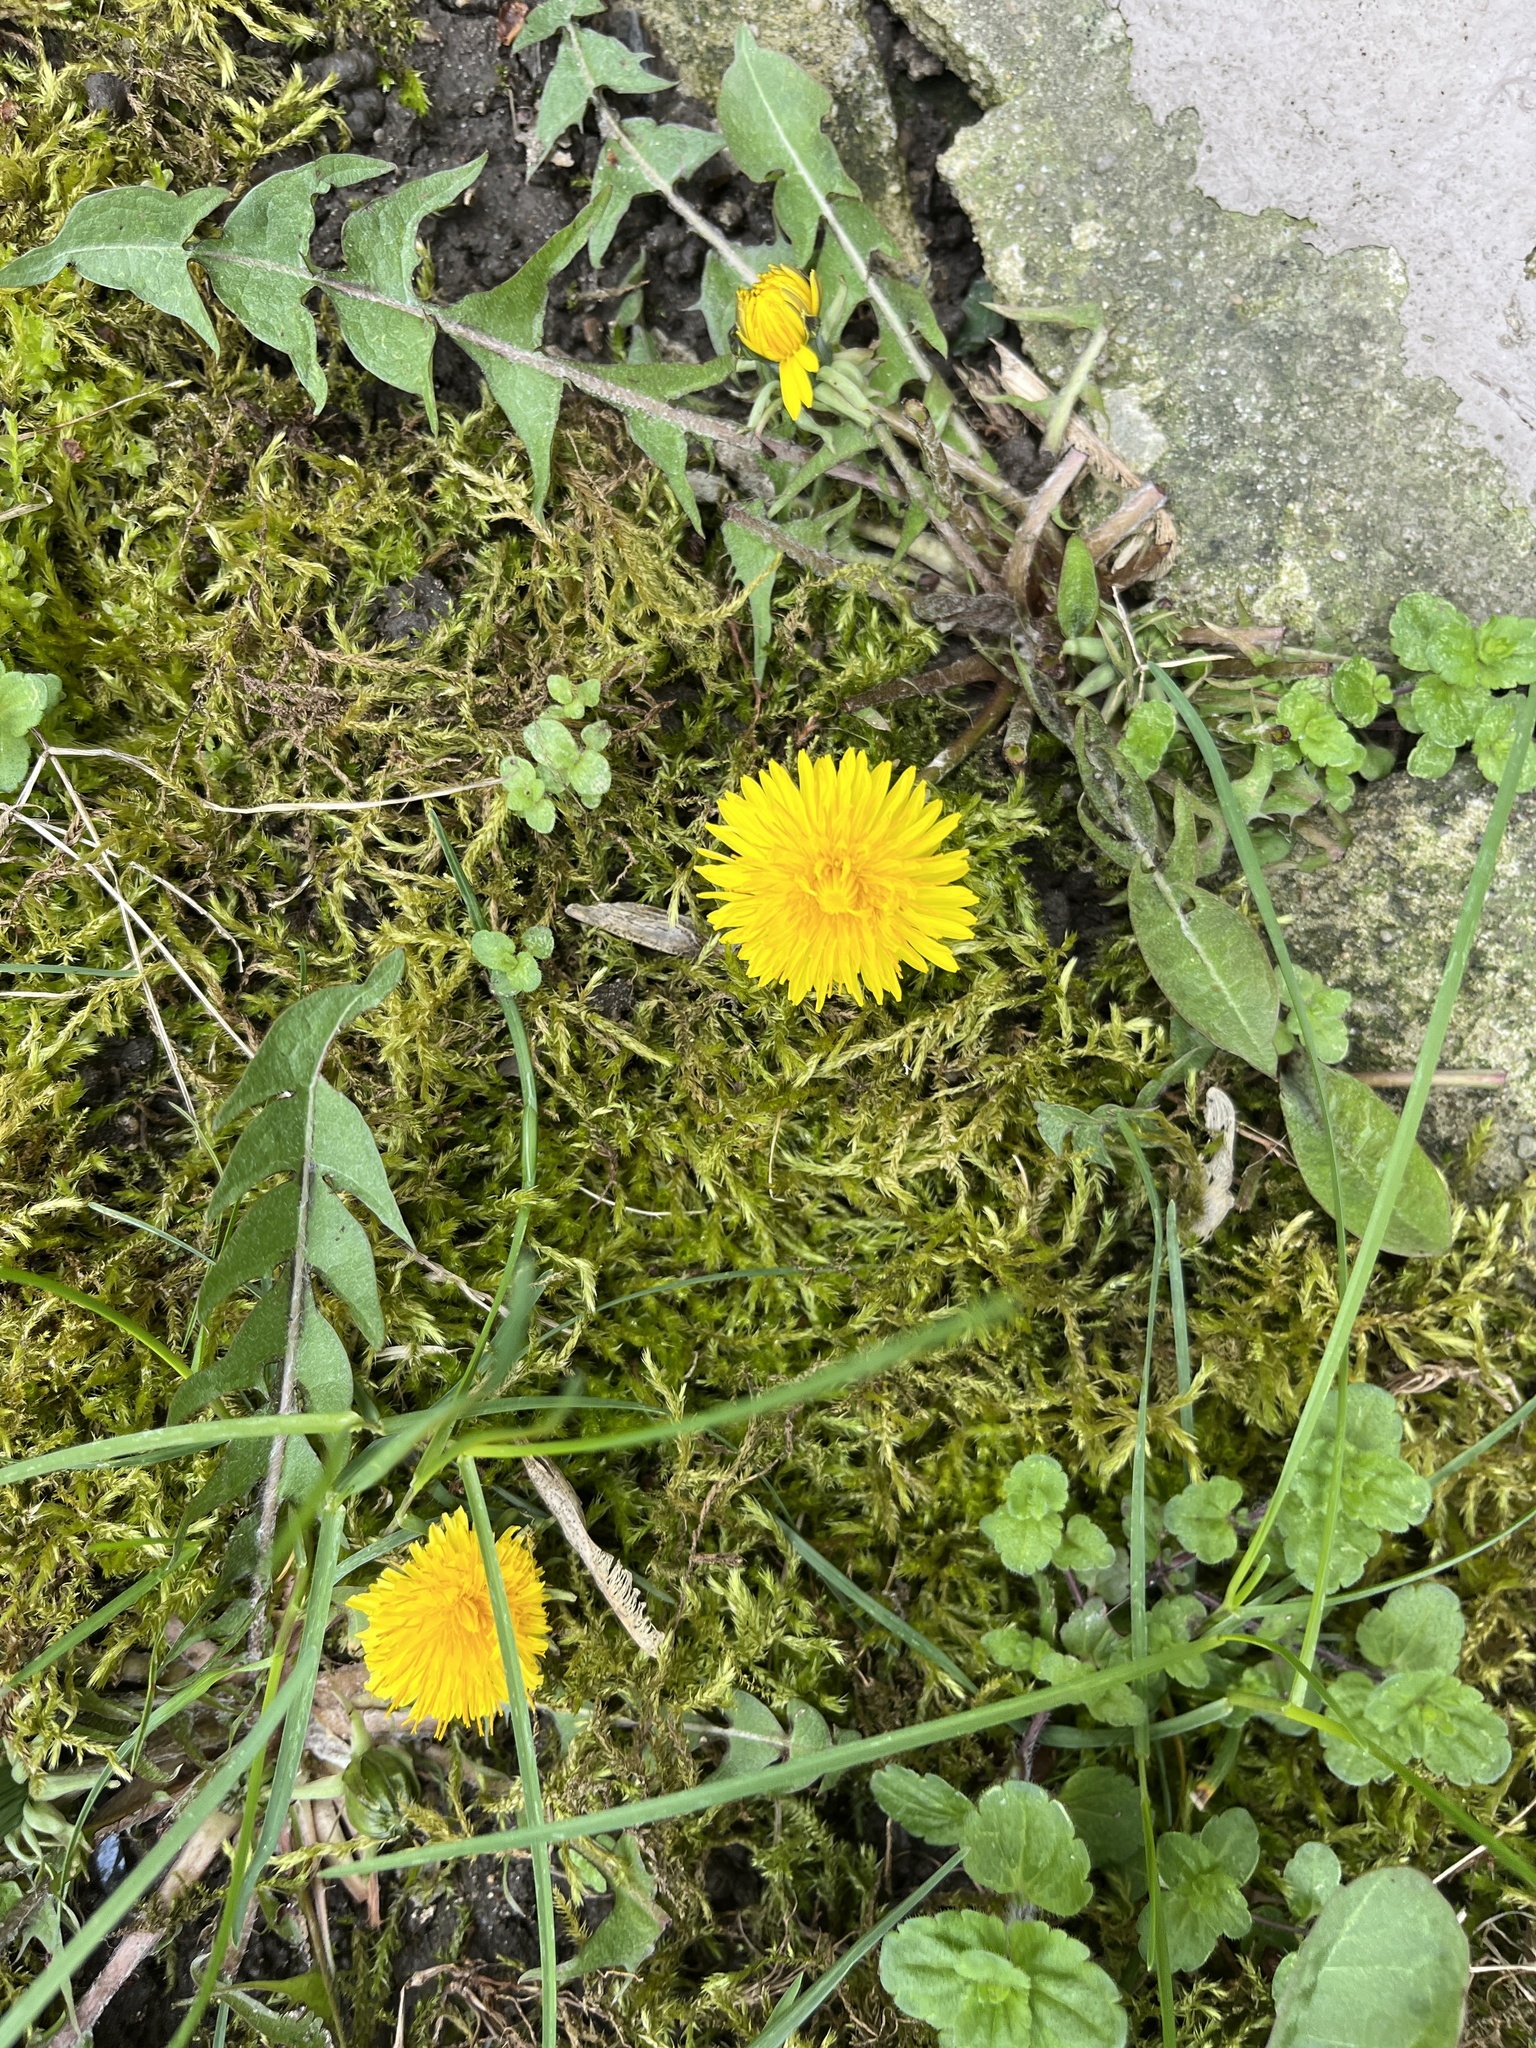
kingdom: Plantae
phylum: Tracheophyta
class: Magnoliopsida
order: Asterales
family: Asteraceae
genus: Taraxacum
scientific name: Taraxacum officinale
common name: Common dandelion
